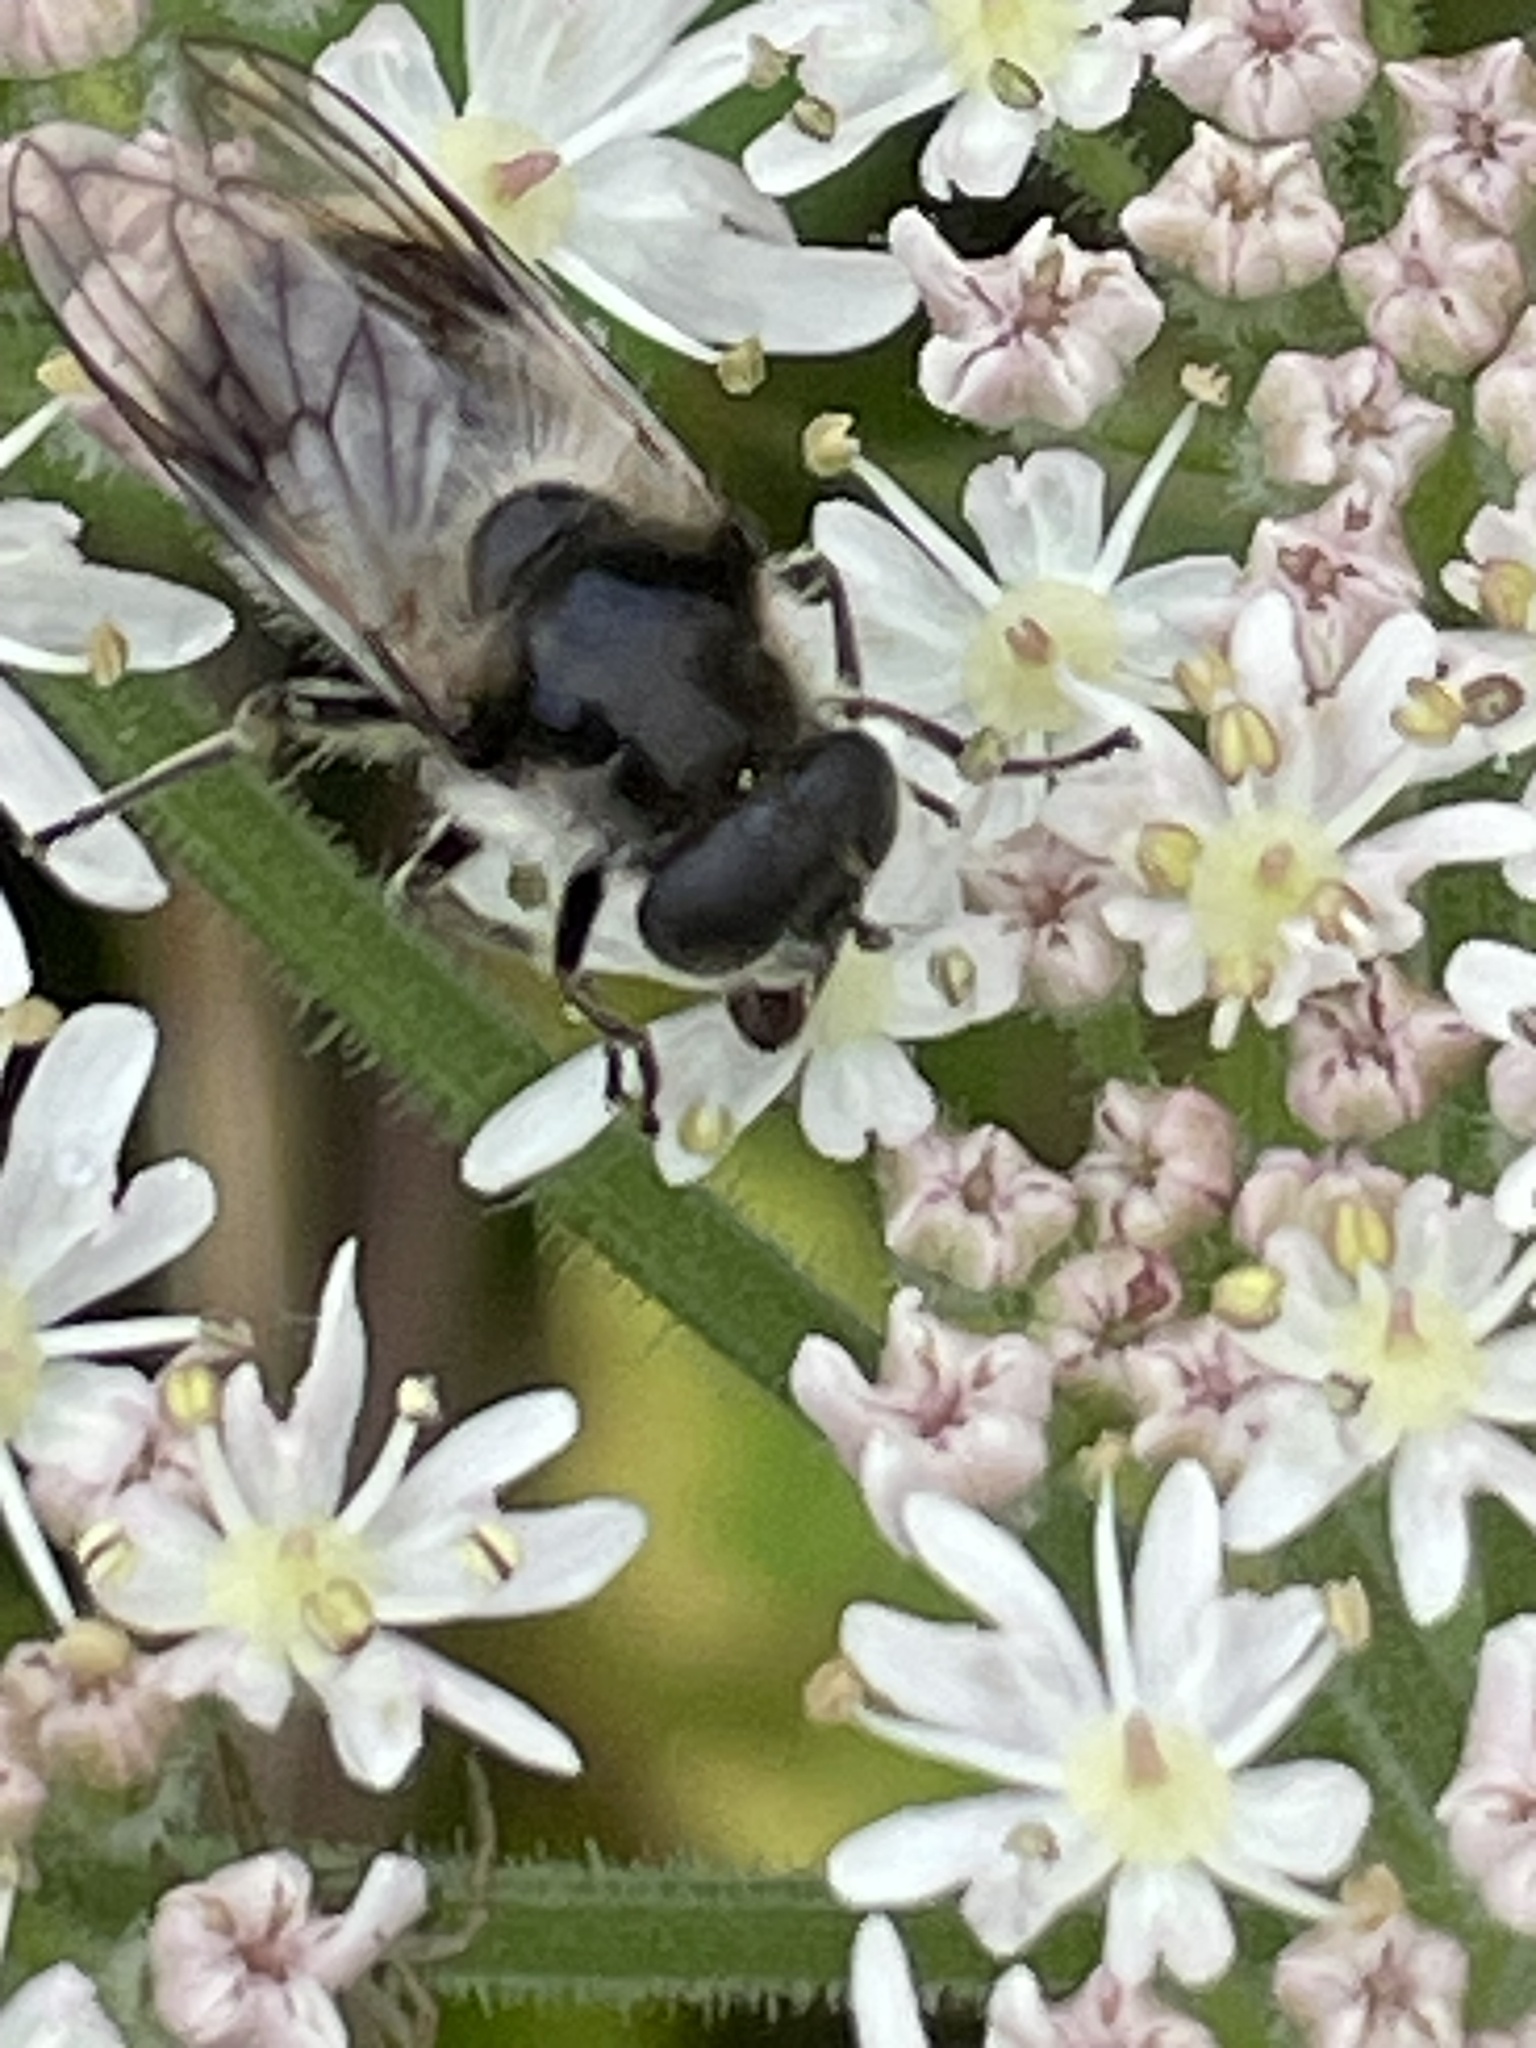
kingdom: Animalia
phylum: Arthropoda
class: Insecta
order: Diptera
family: Syrphidae
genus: Cheilosia
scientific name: Cheilosia illustrata
